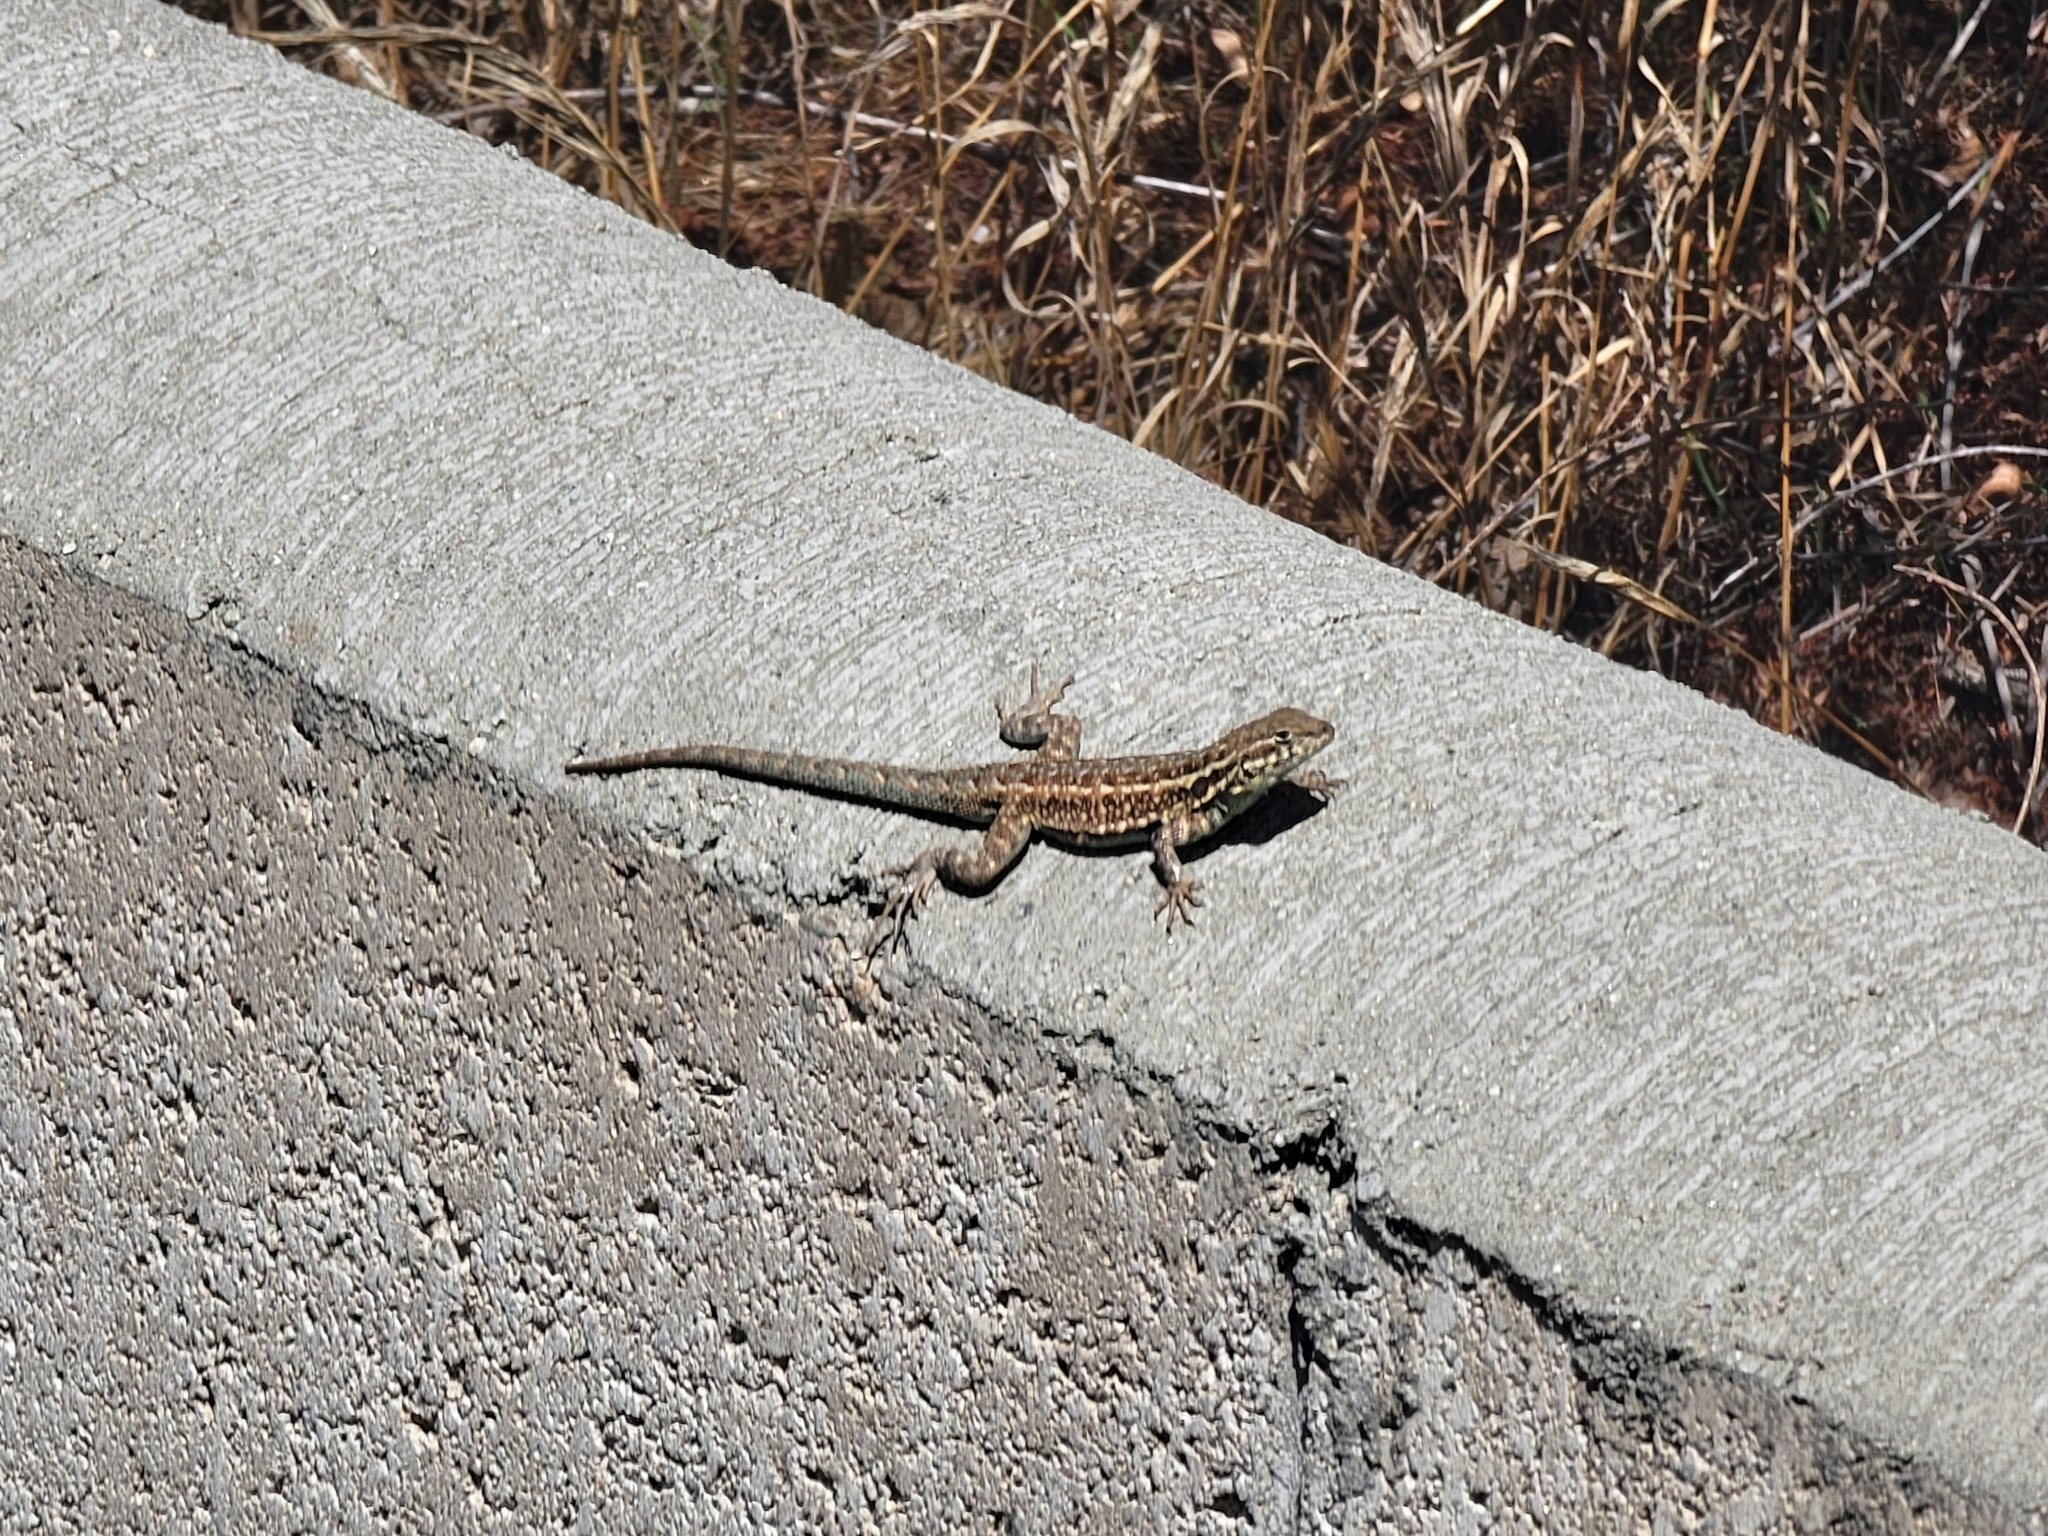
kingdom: Animalia
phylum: Chordata
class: Squamata
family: Phrynosomatidae
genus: Uta
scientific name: Uta stansburiana
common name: Side-blotched lizard
